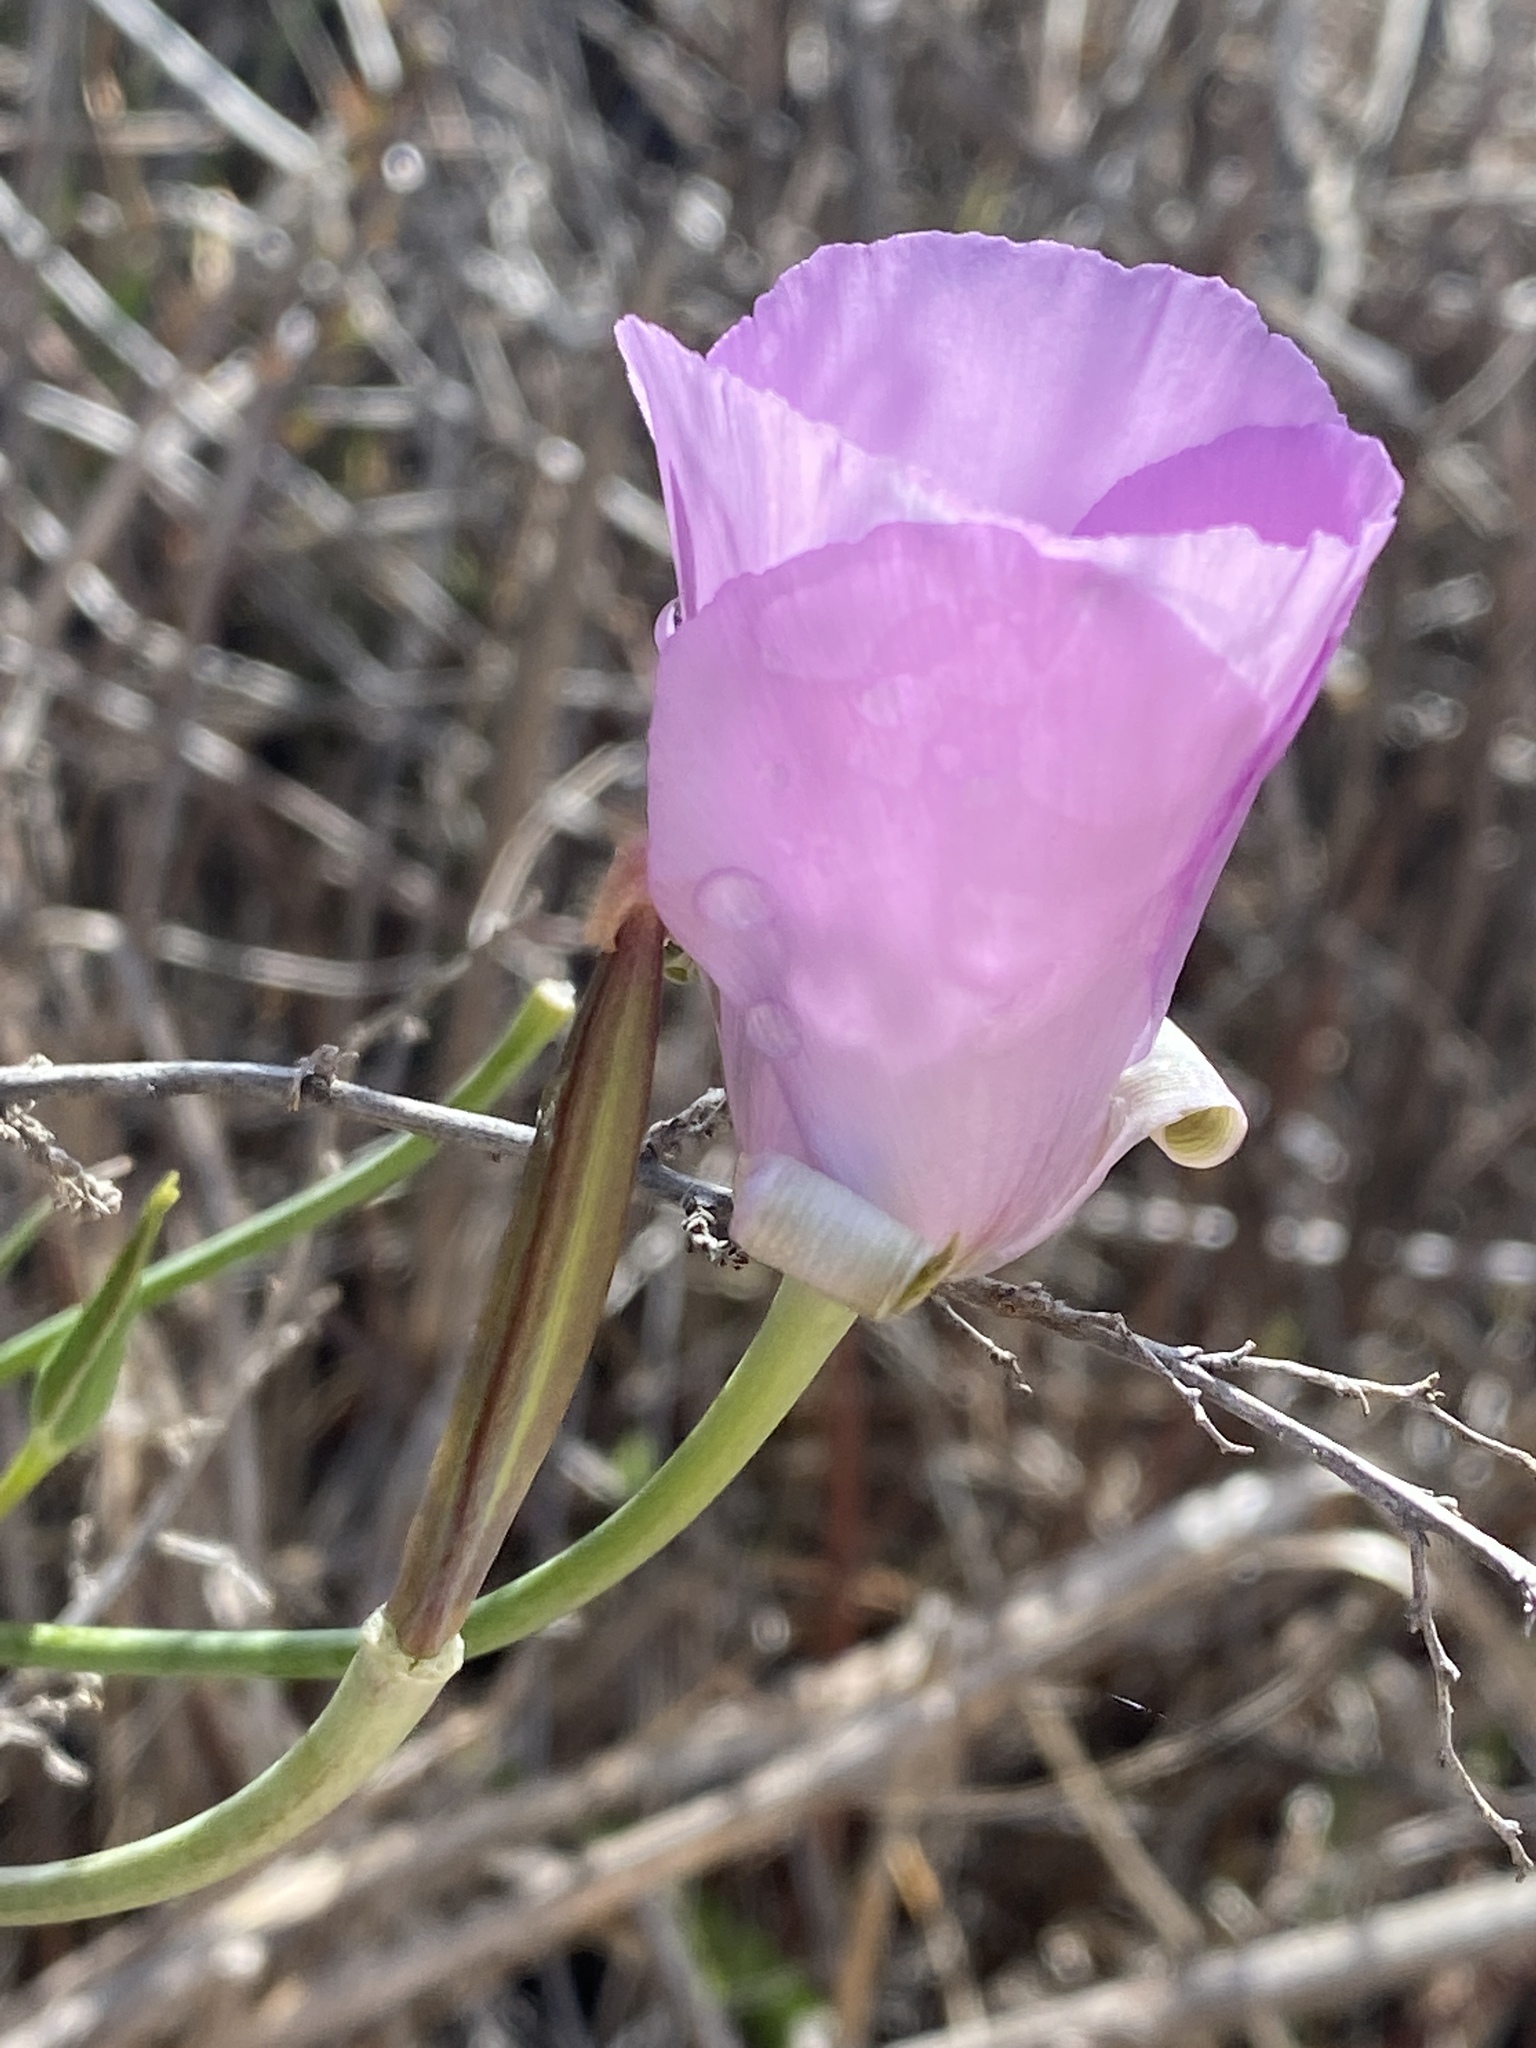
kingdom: Plantae
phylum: Tracheophyta
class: Liliopsida
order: Liliales
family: Liliaceae
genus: Calochortus
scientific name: Calochortus splendens
